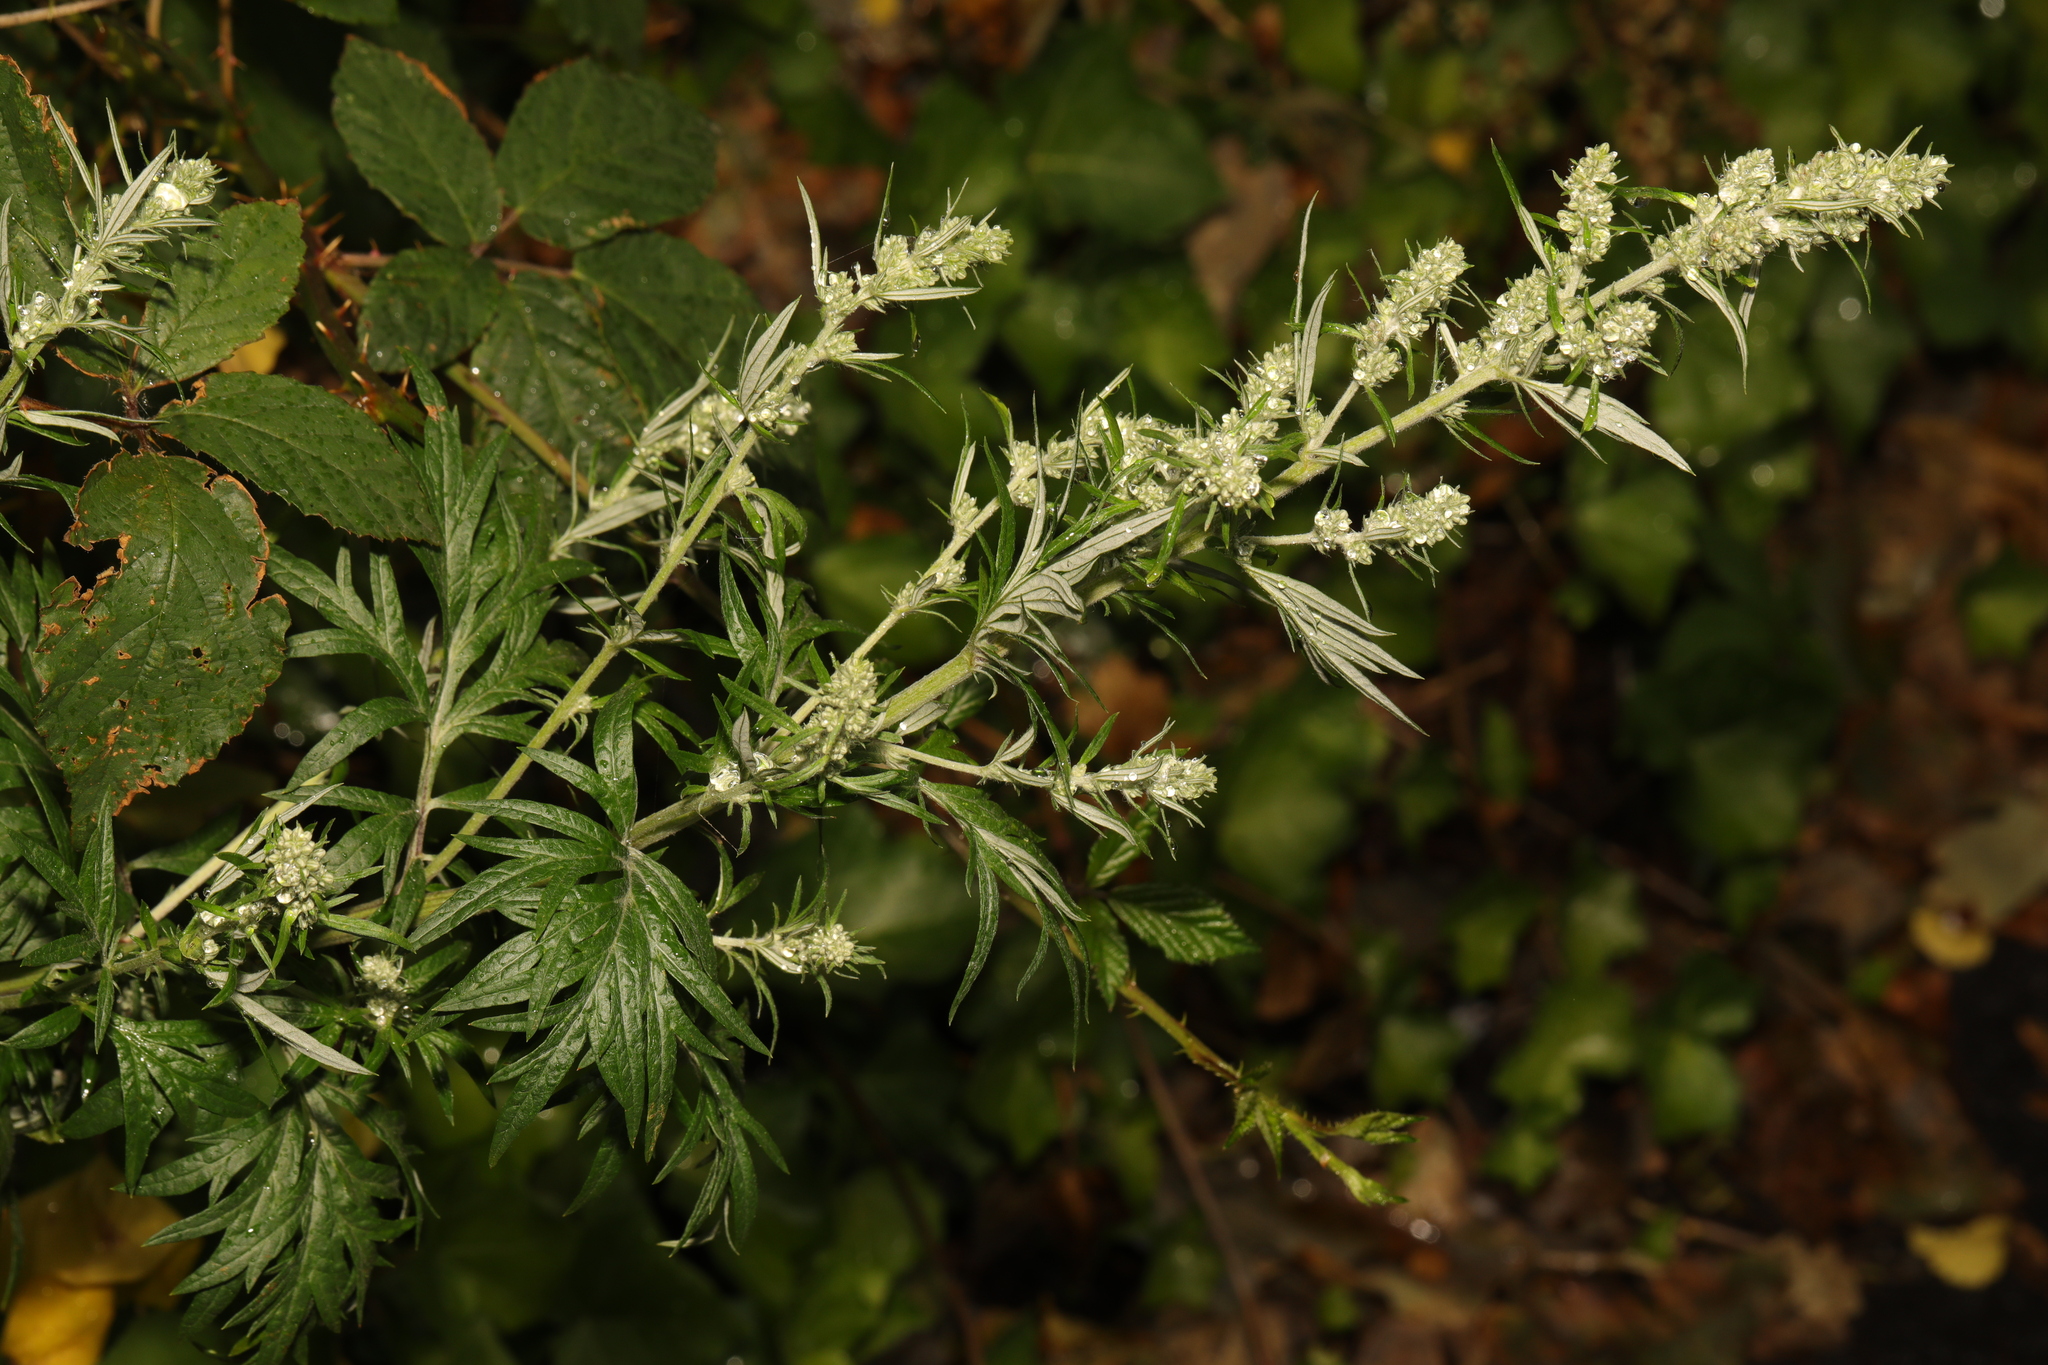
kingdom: Plantae
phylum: Tracheophyta
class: Magnoliopsida
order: Asterales
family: Asteraceae
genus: Artemisia
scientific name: Artemisia vulgaris
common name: Mugwort
